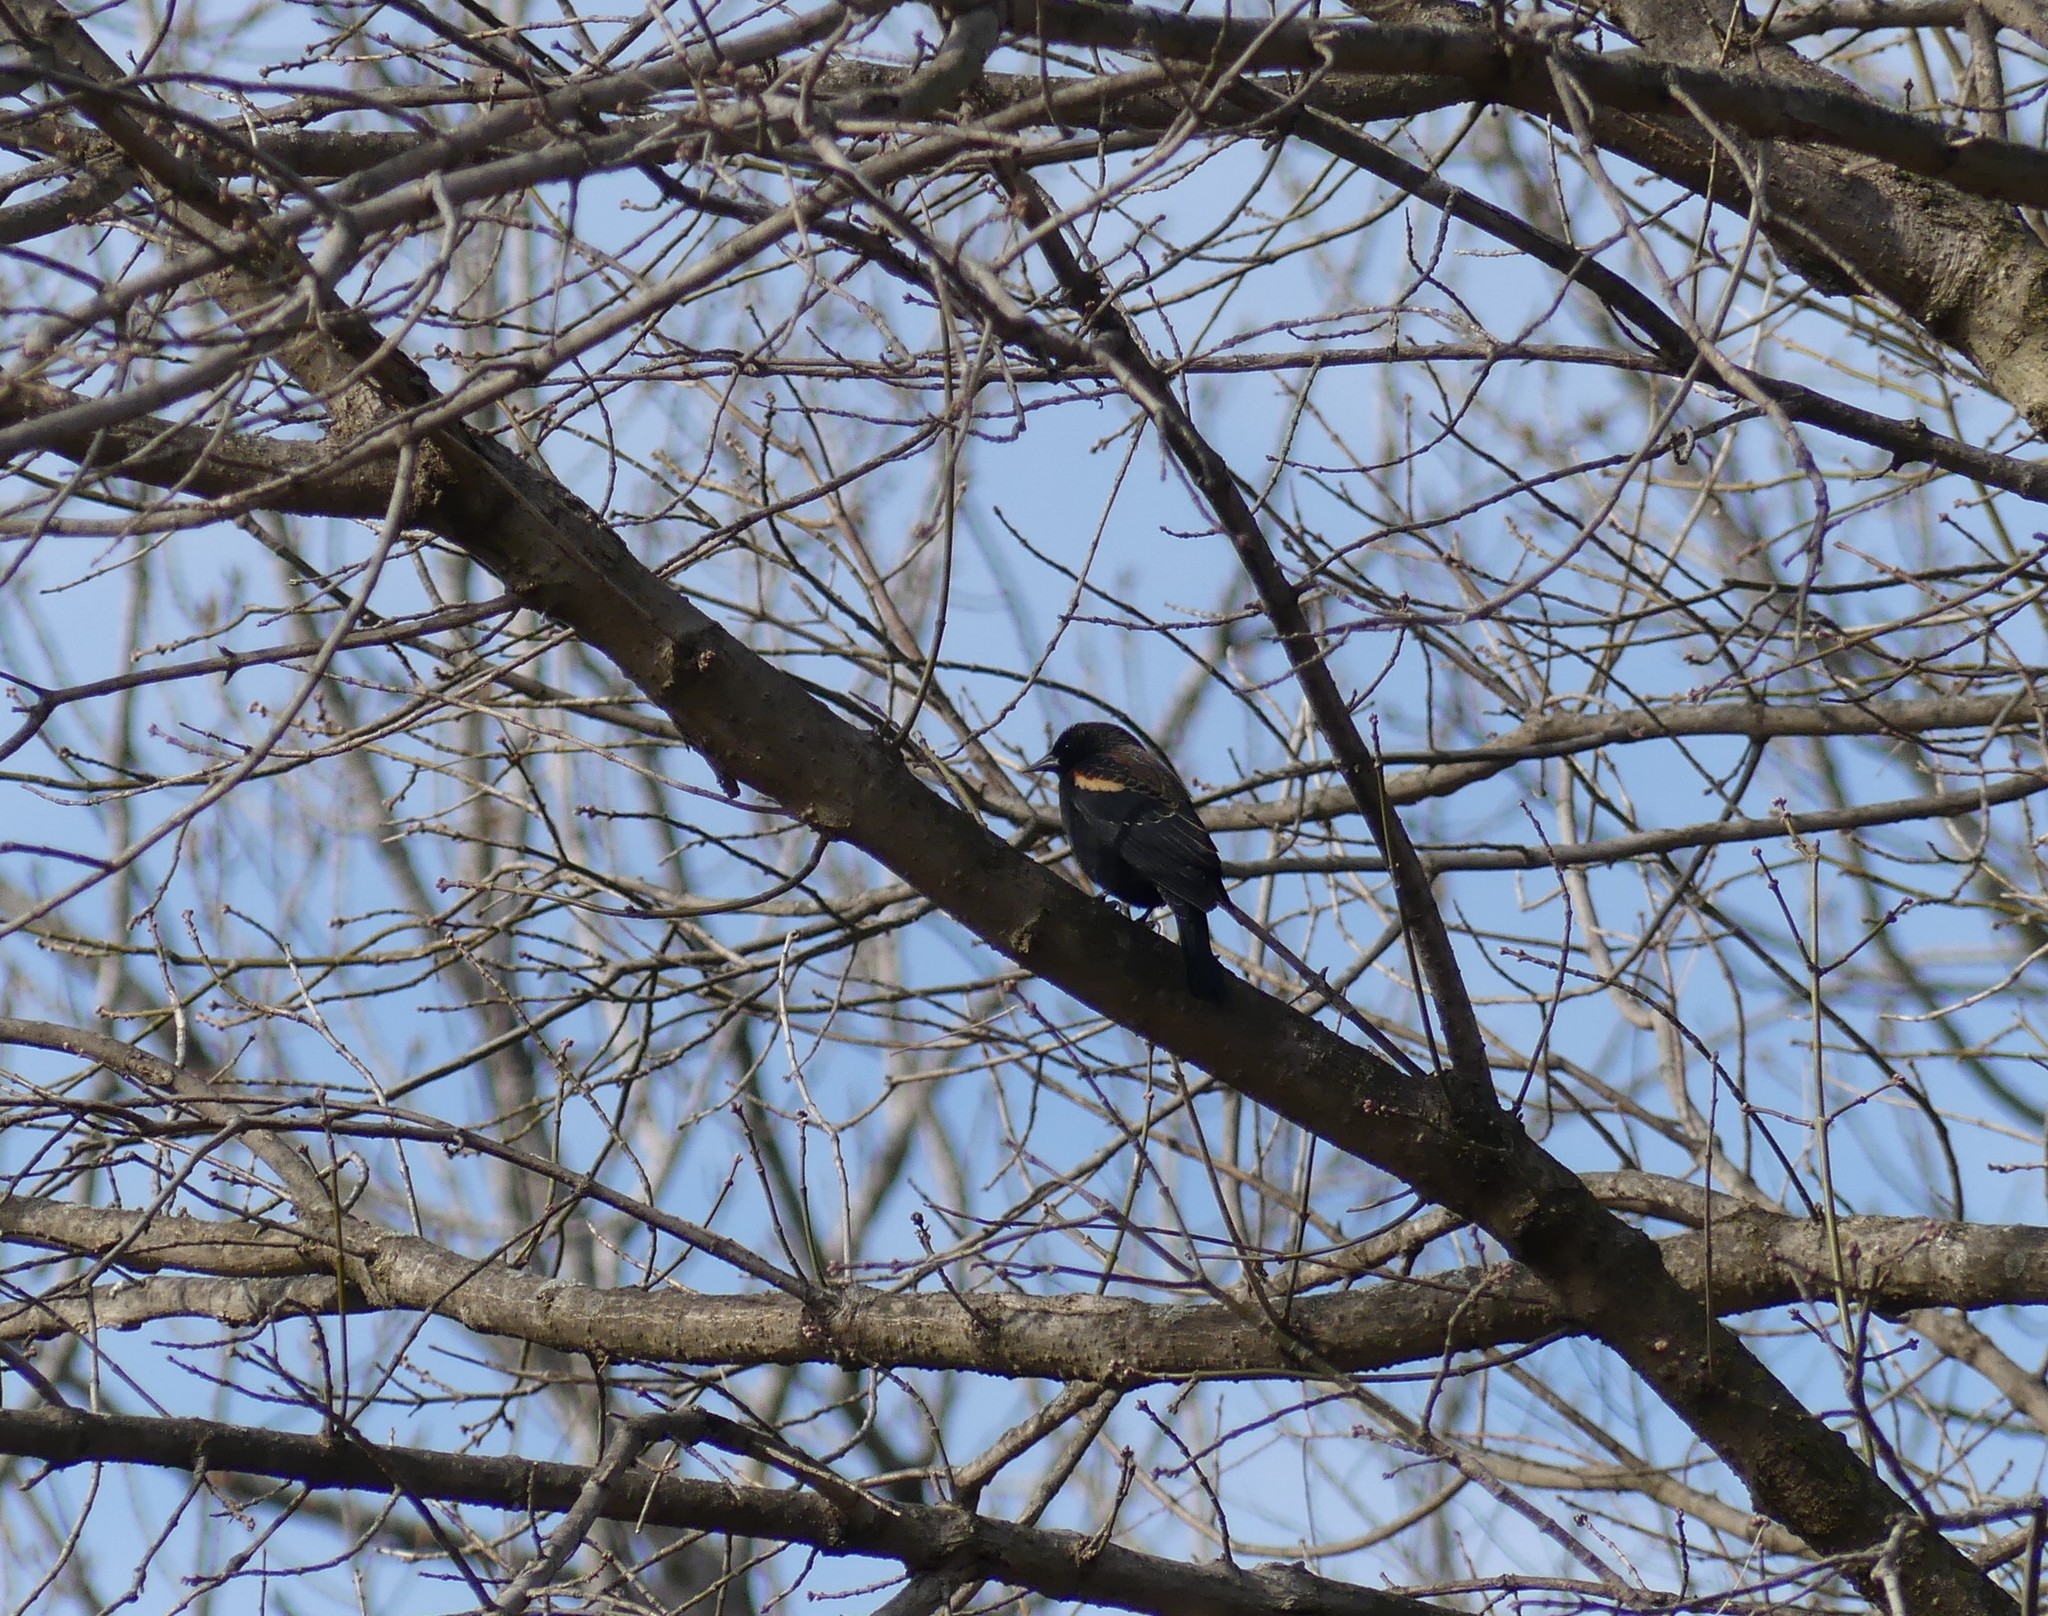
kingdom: Animalia
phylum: Chordata
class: Aves
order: Passeriformes
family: Icteridae
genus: Agelaius
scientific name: Agelaius phoeniceus
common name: Red-winged blackbird
